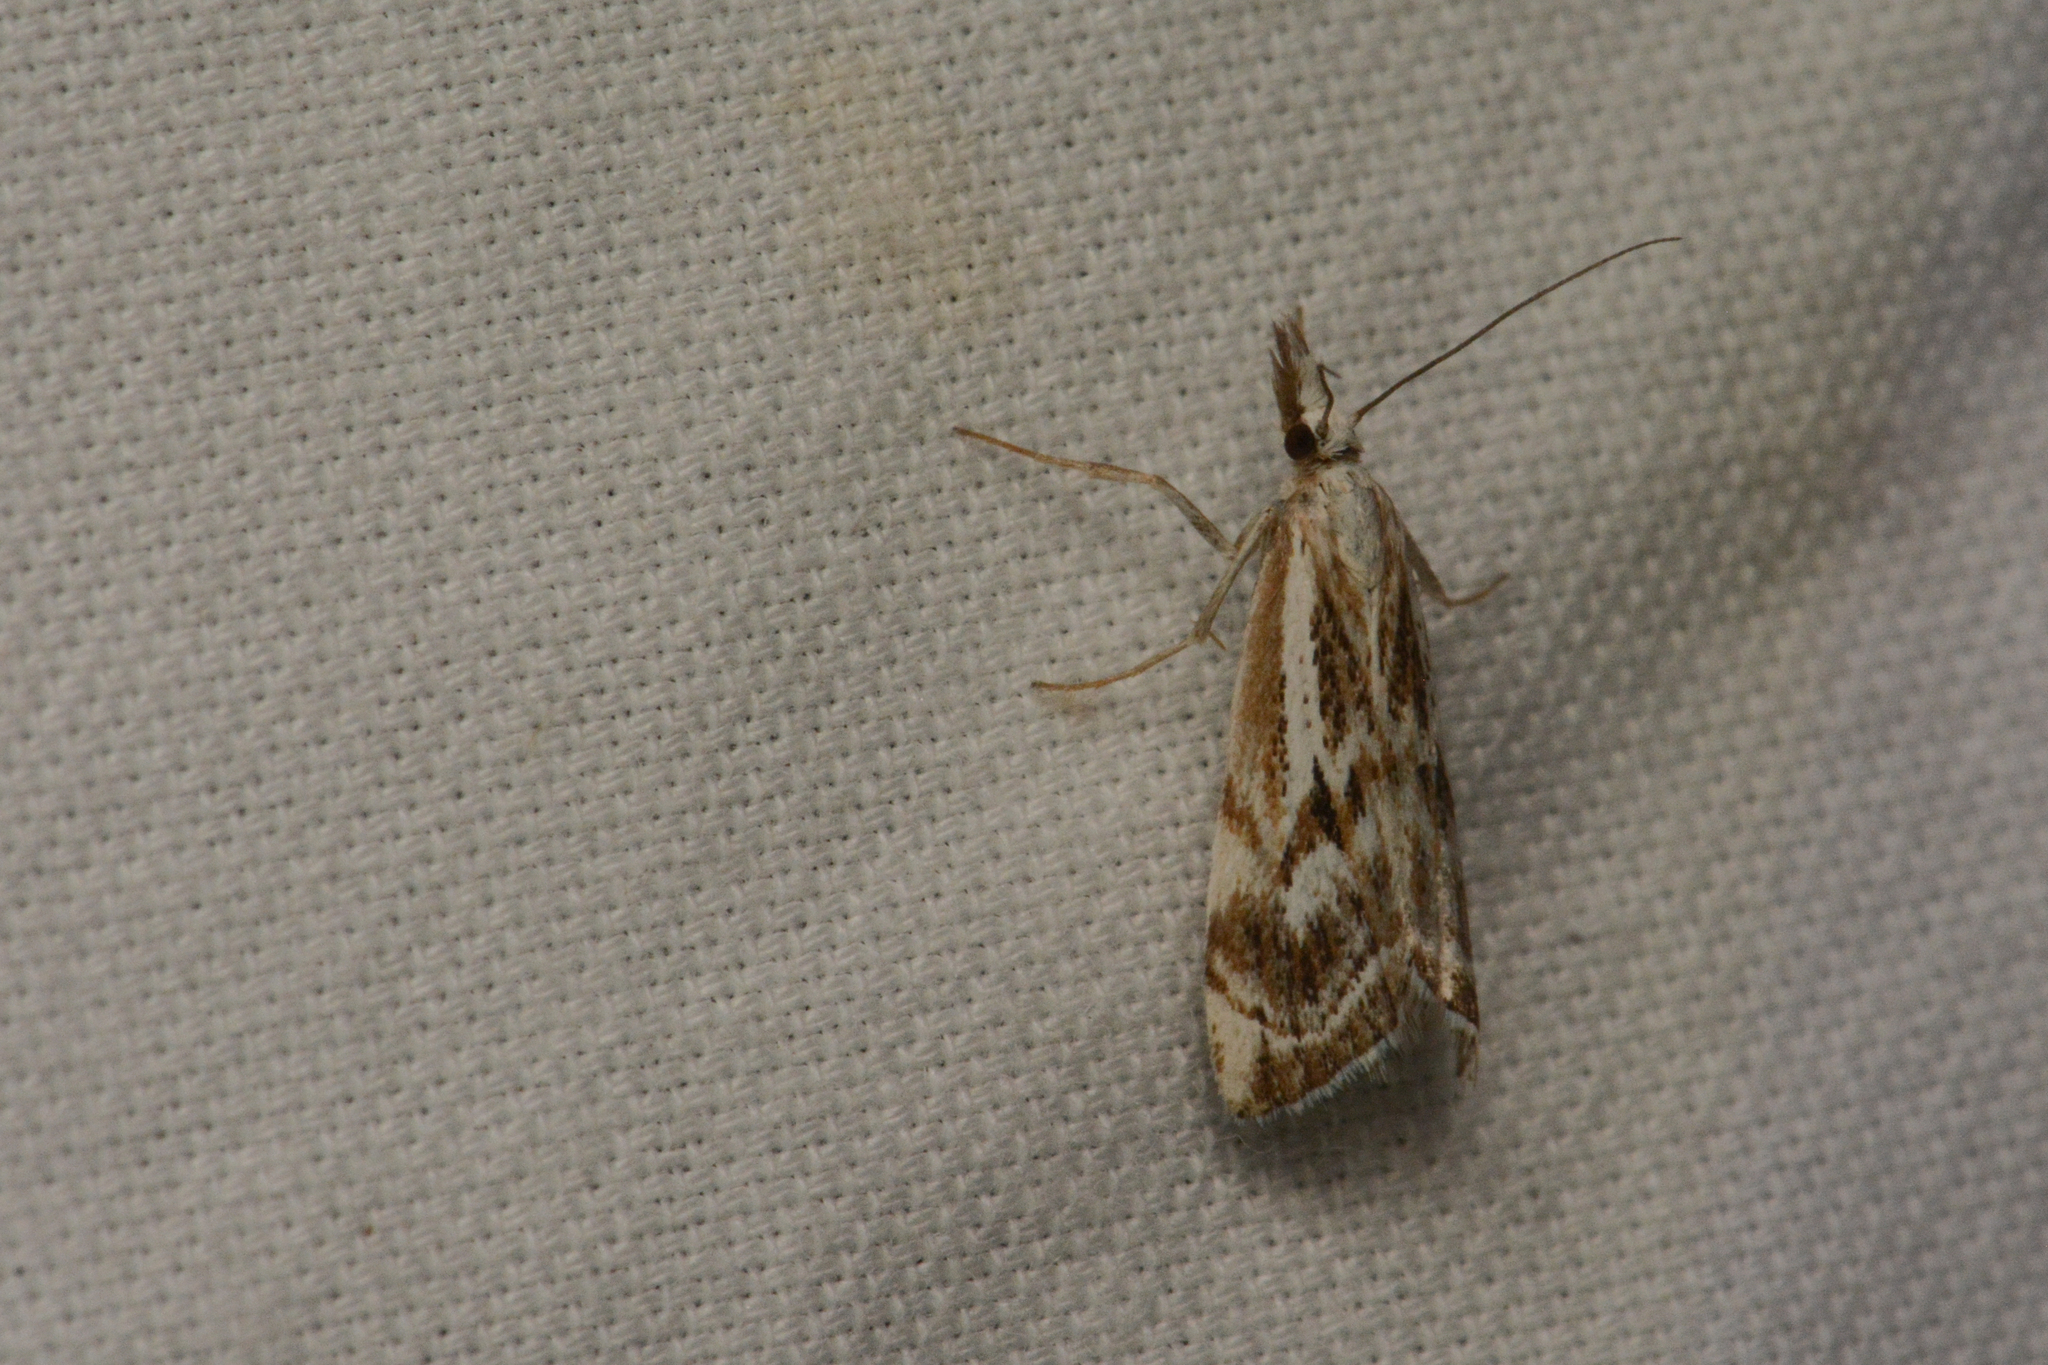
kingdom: Animalia
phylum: Arthropoda
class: Insecta
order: Lepidoptera
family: Crambidae
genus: Catoptria
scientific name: Catoptria oregonicus
